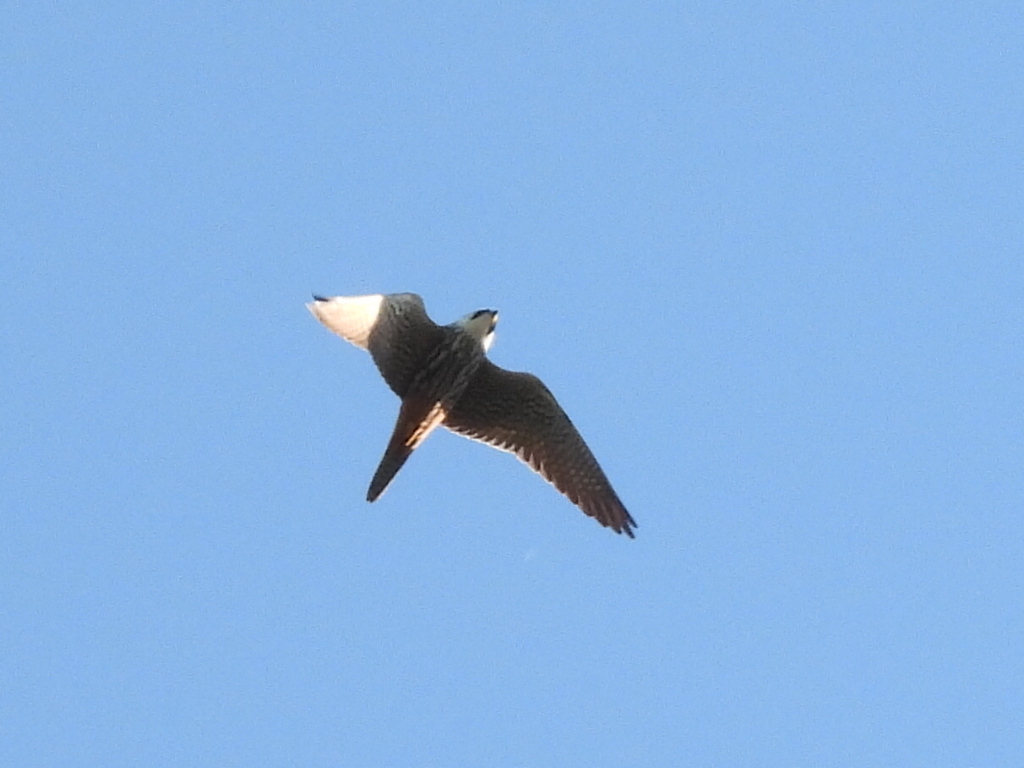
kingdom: Animalia
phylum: Chordata
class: Aves
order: Falconiformes
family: Falconidae
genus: Falco
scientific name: Falco subbuteo
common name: Eurasian hobby
